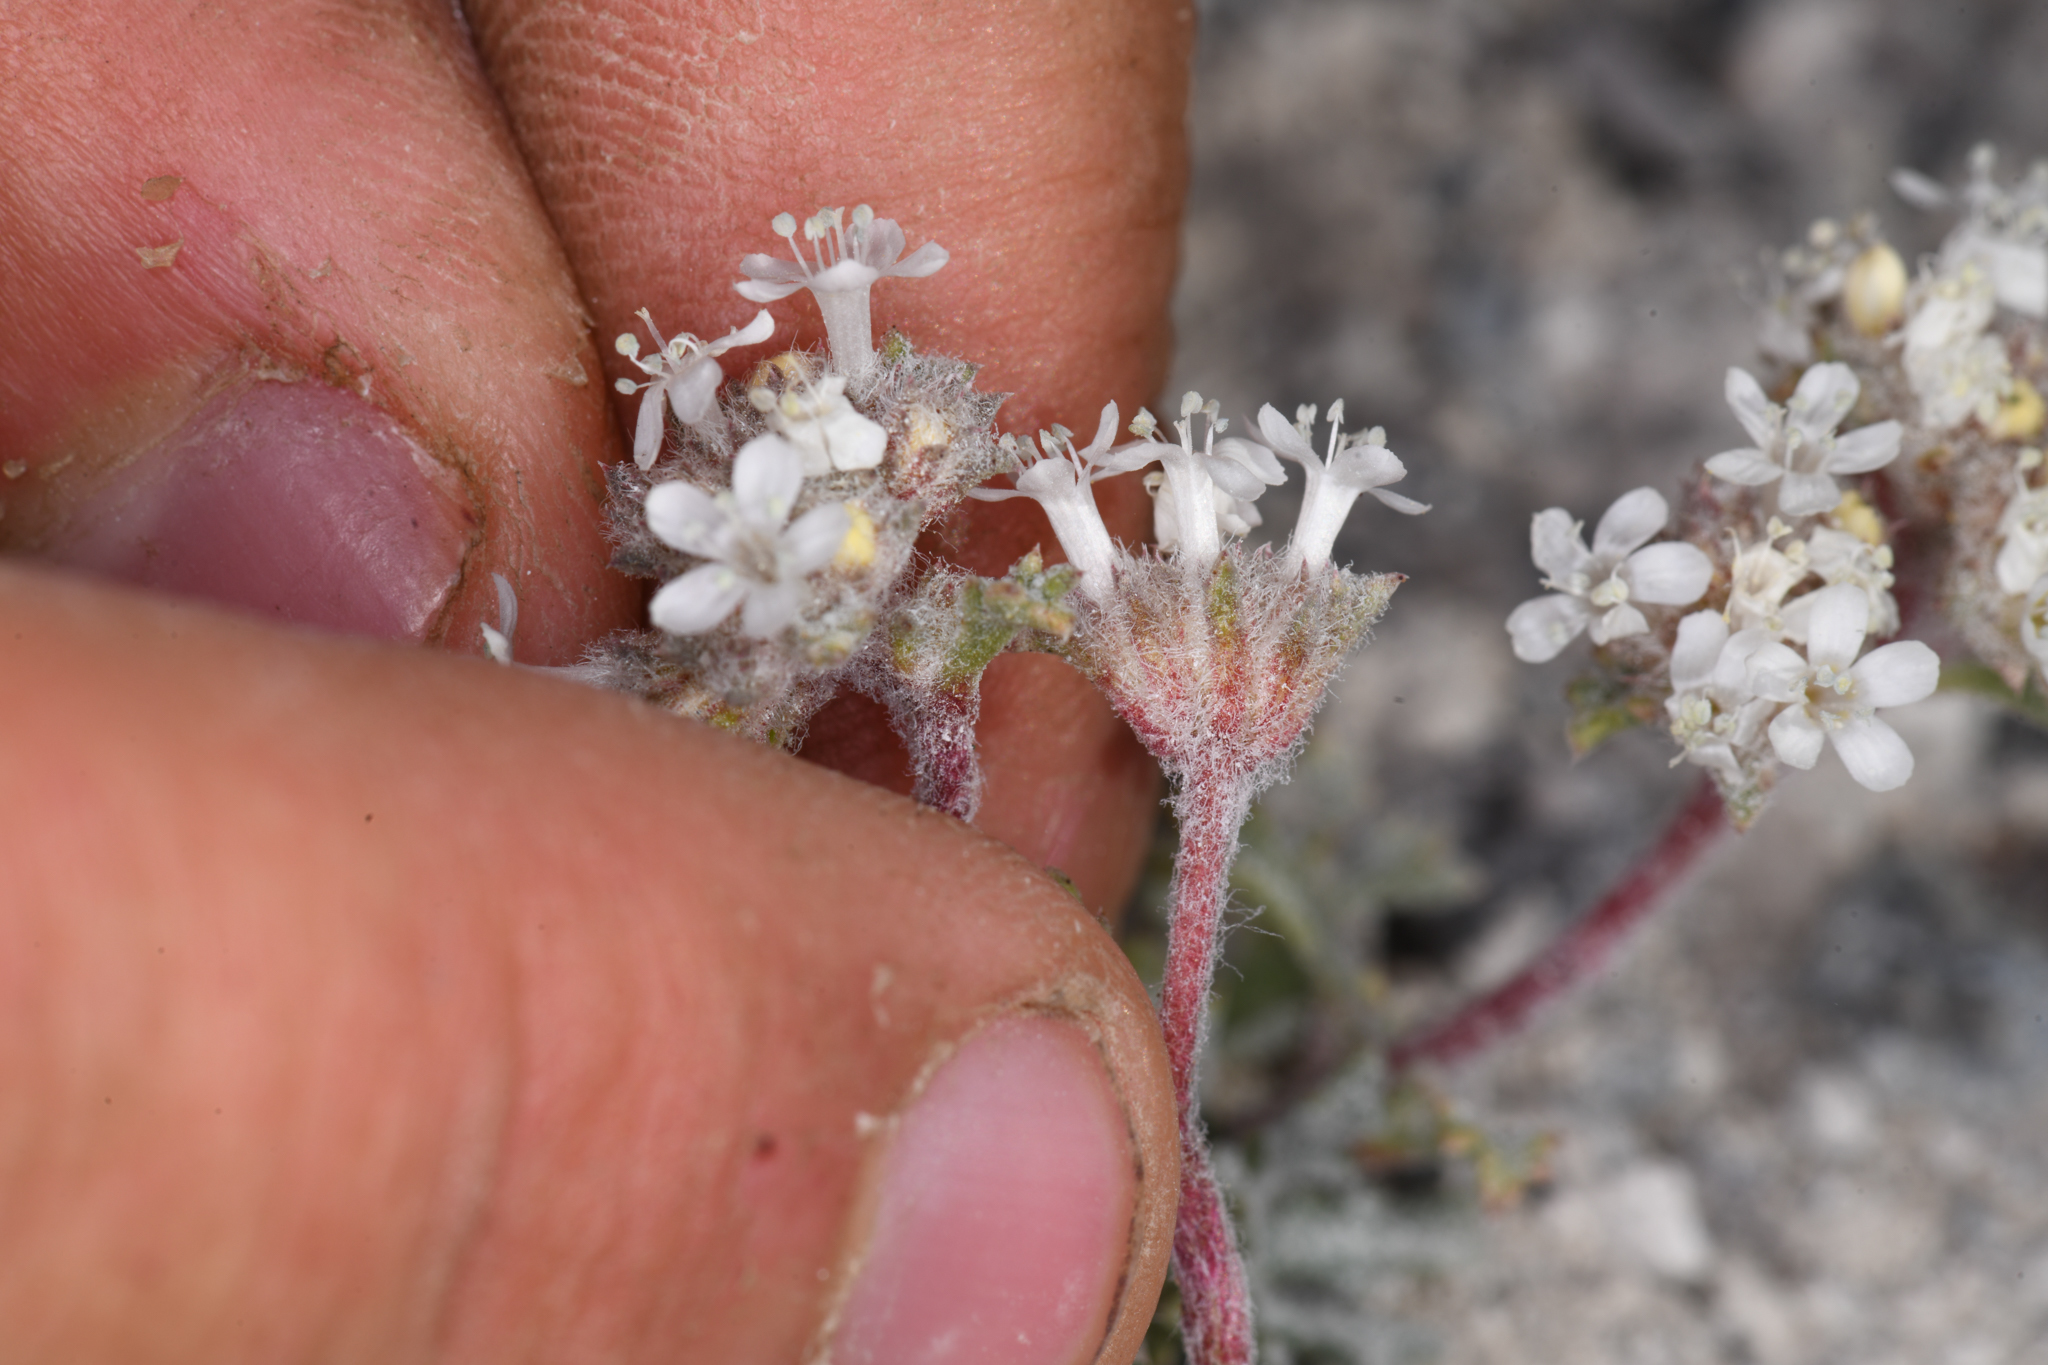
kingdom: Plantae
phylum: Tracheophyta
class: Magnoliopsida
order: Ericales
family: Polemoniaceae
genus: Ipomopsis
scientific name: Ipomopsis congesta
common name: Ball-head gilia
